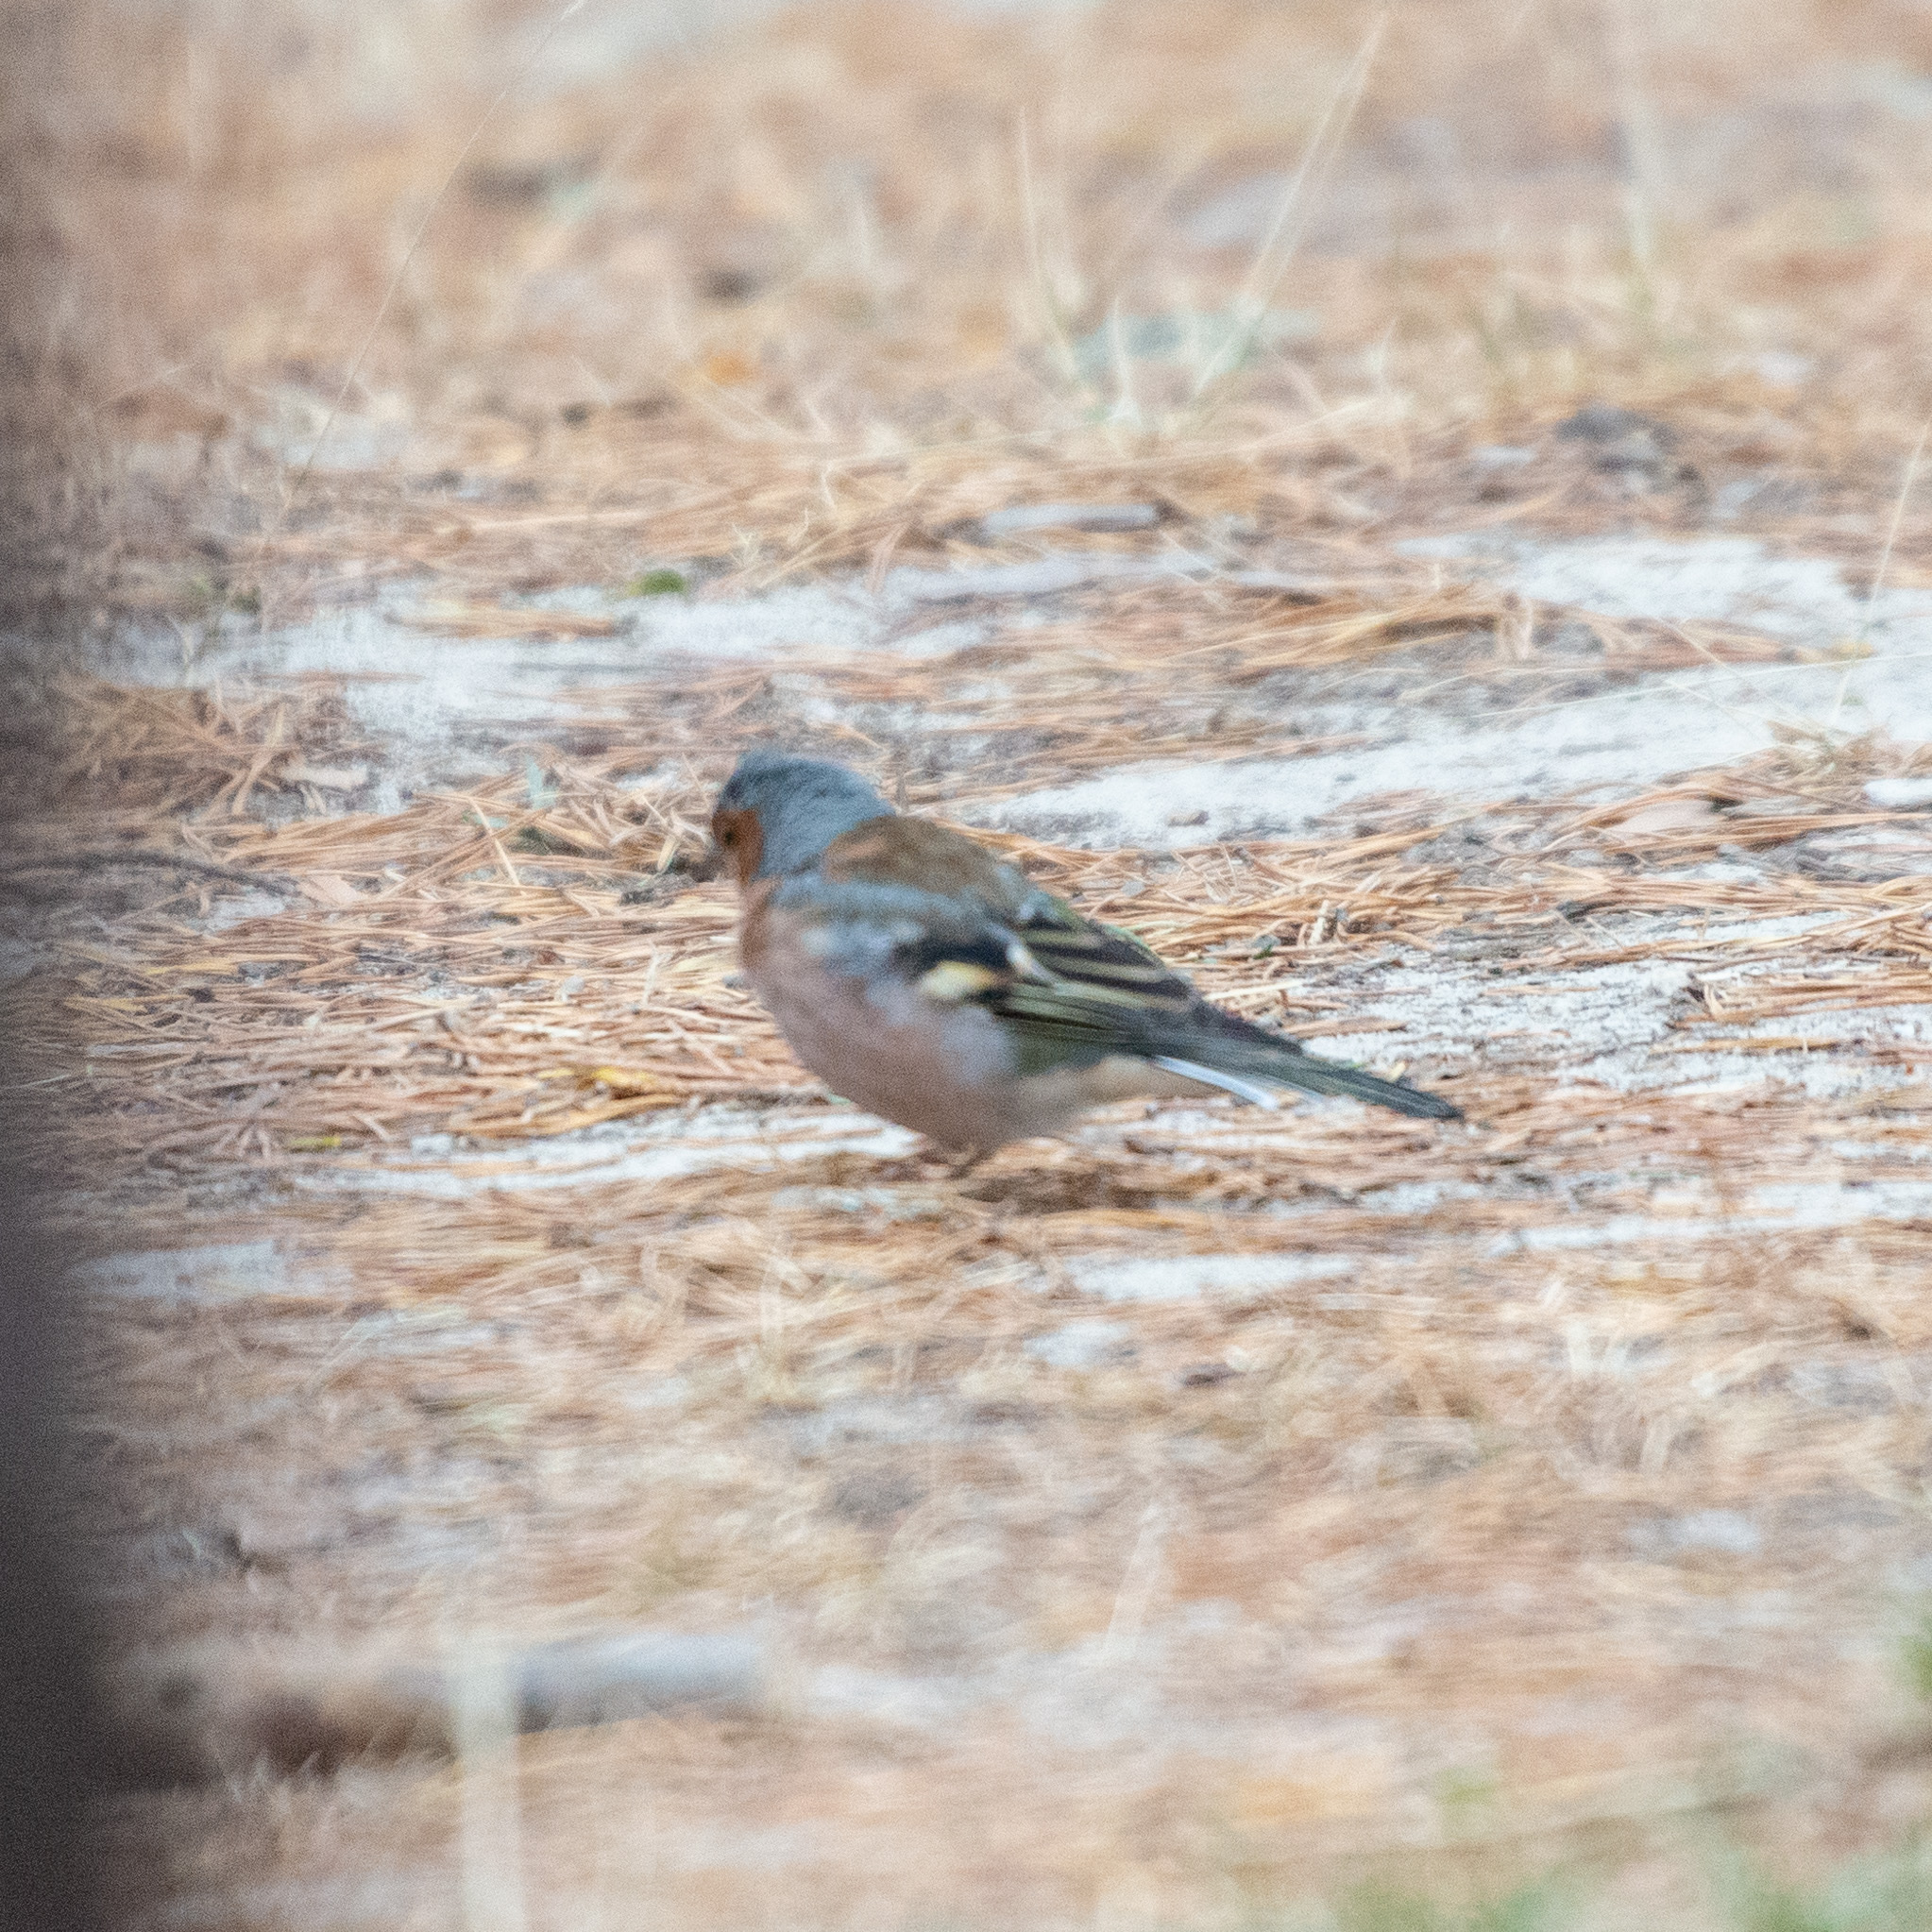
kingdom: Animalia
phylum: Chordata
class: Aves
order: Passeriformes
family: Fringillidae
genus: Fringilla
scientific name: Fringilla coelebs
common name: Common chaffinch
